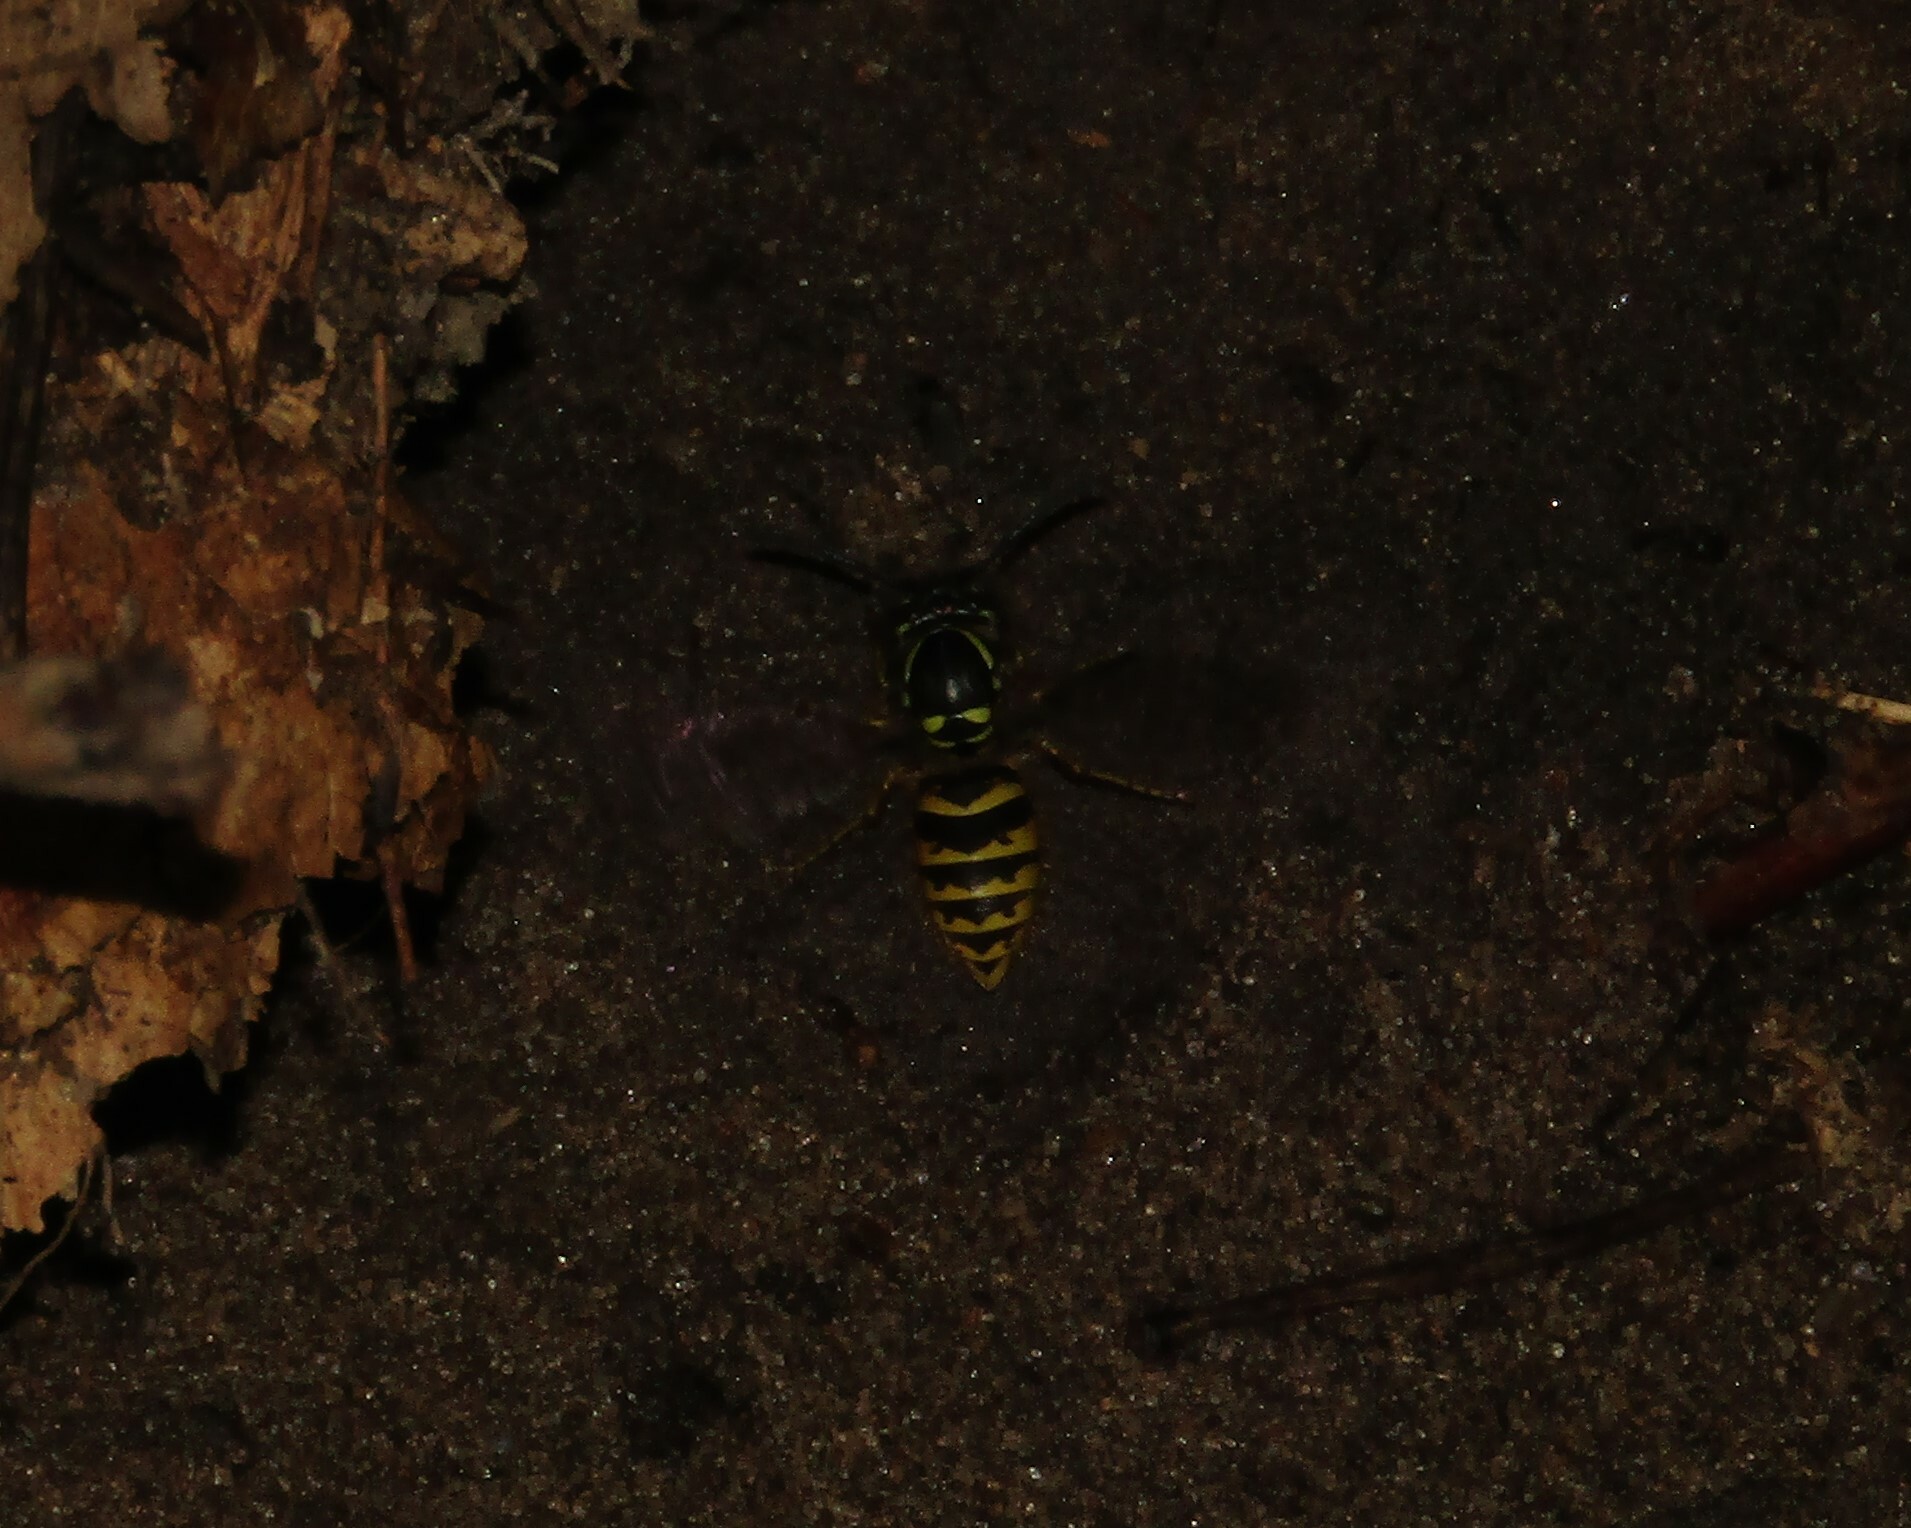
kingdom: Animalia
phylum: Arthropoda
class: Insecta
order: Hymenoptera
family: Vespidae
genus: Vespula
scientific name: Vespula vulgaris
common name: Common wasp
